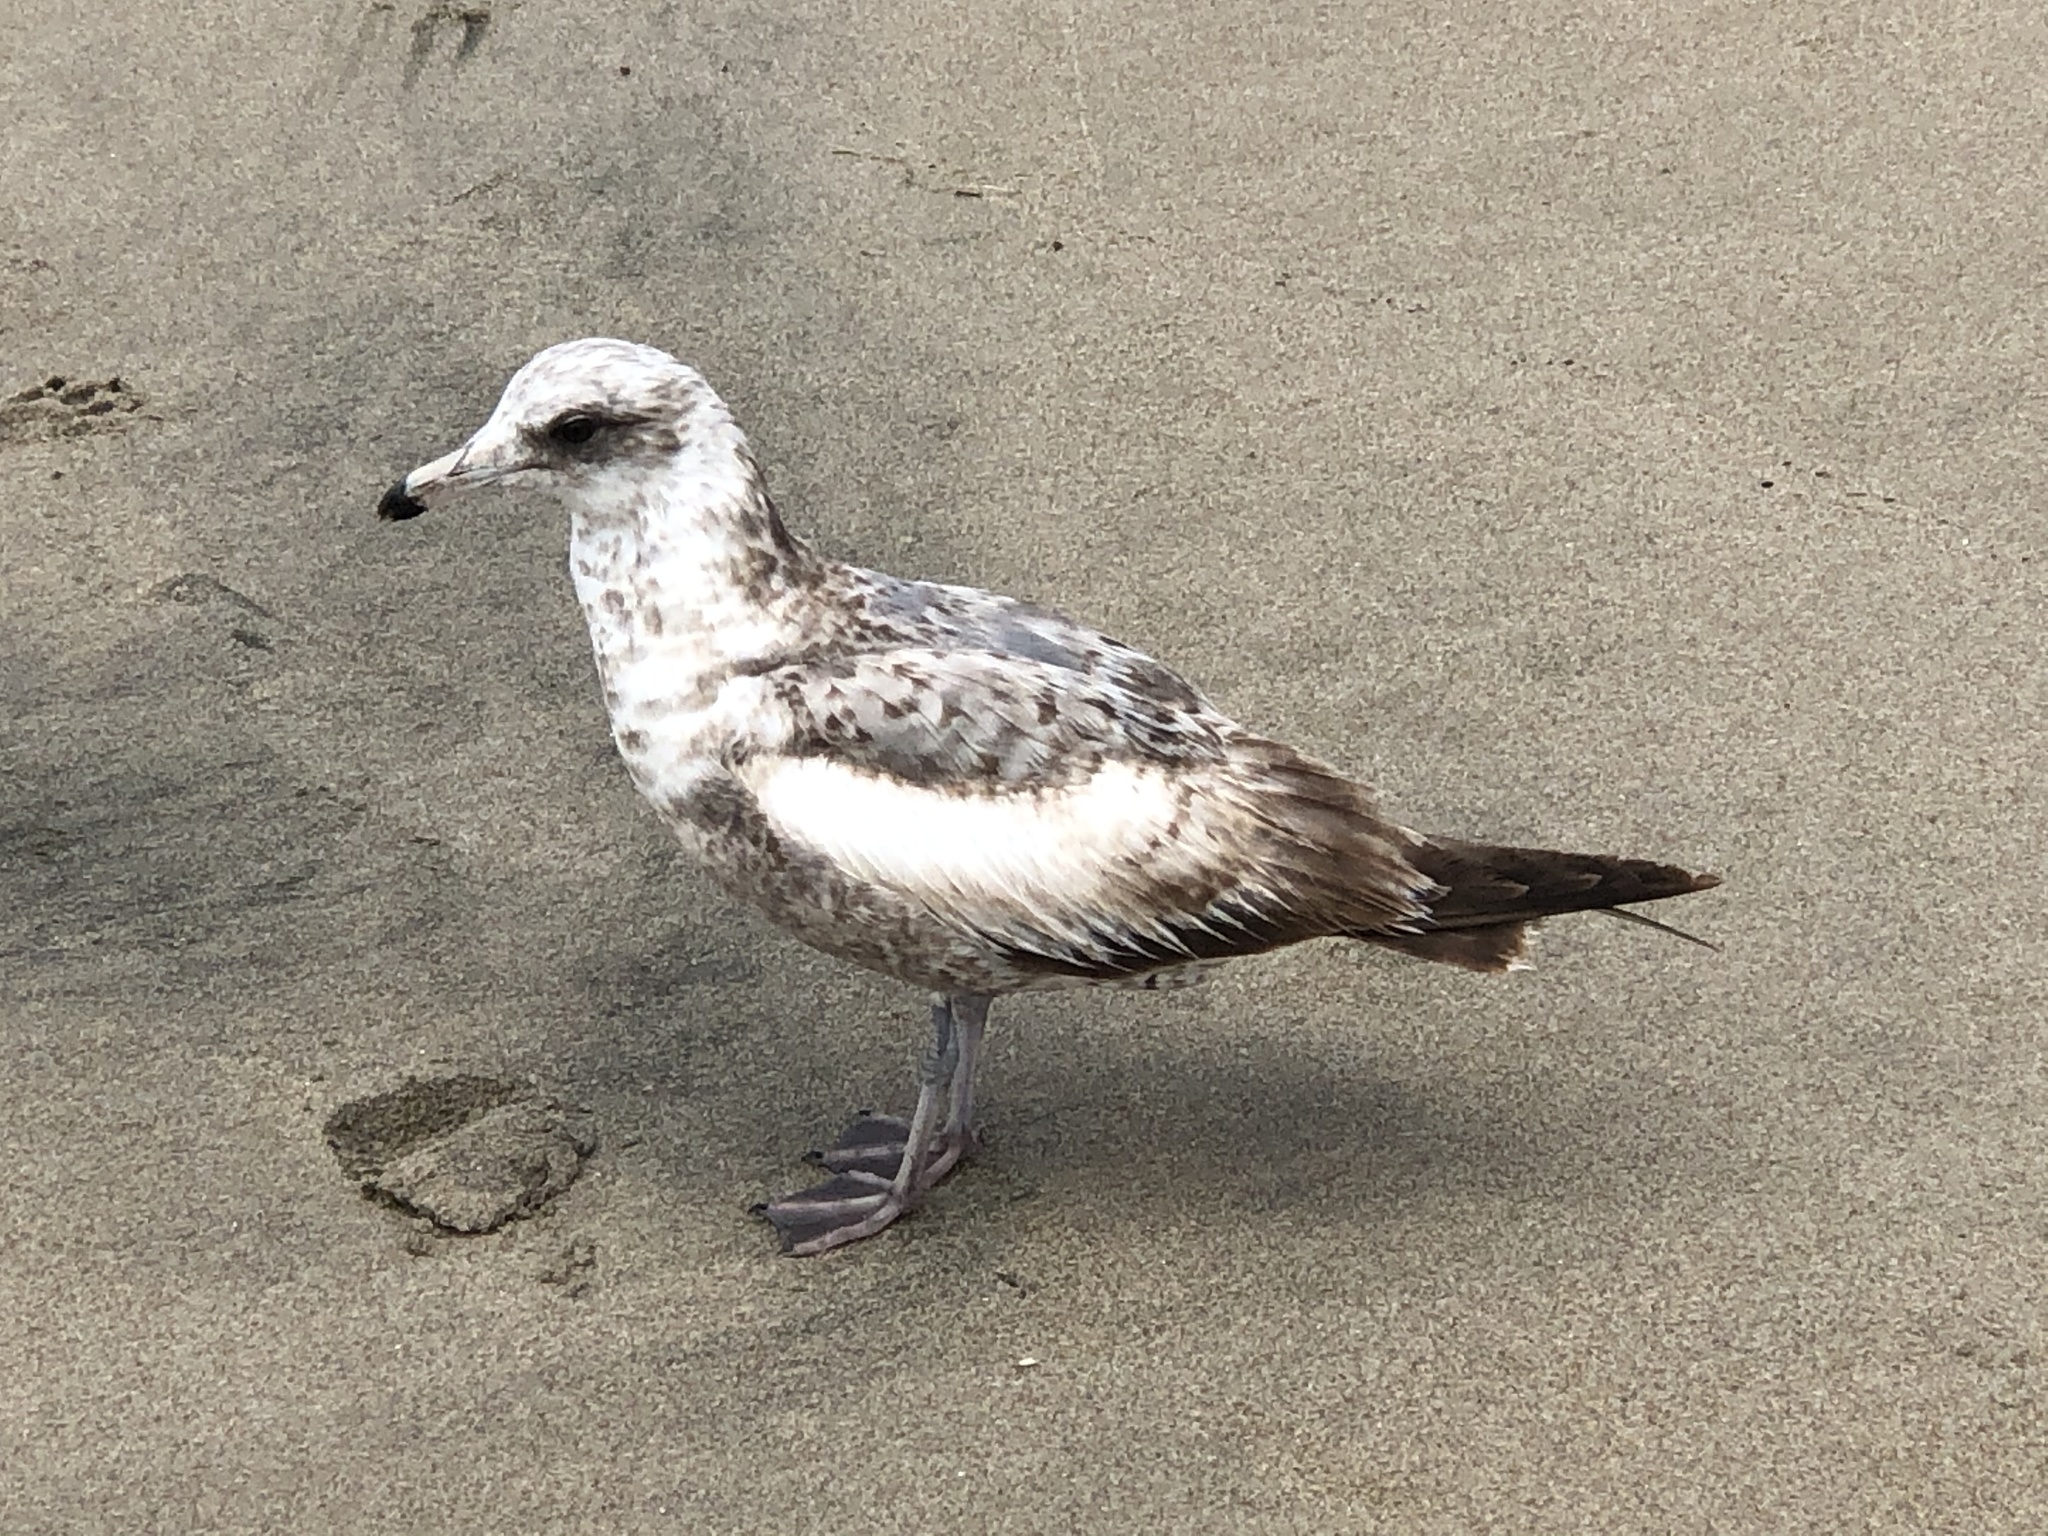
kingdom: Animalia
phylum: Chordata
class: Aves
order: Charadriiformes
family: Laridae
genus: Larus
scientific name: Larus californicus
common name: California gull
